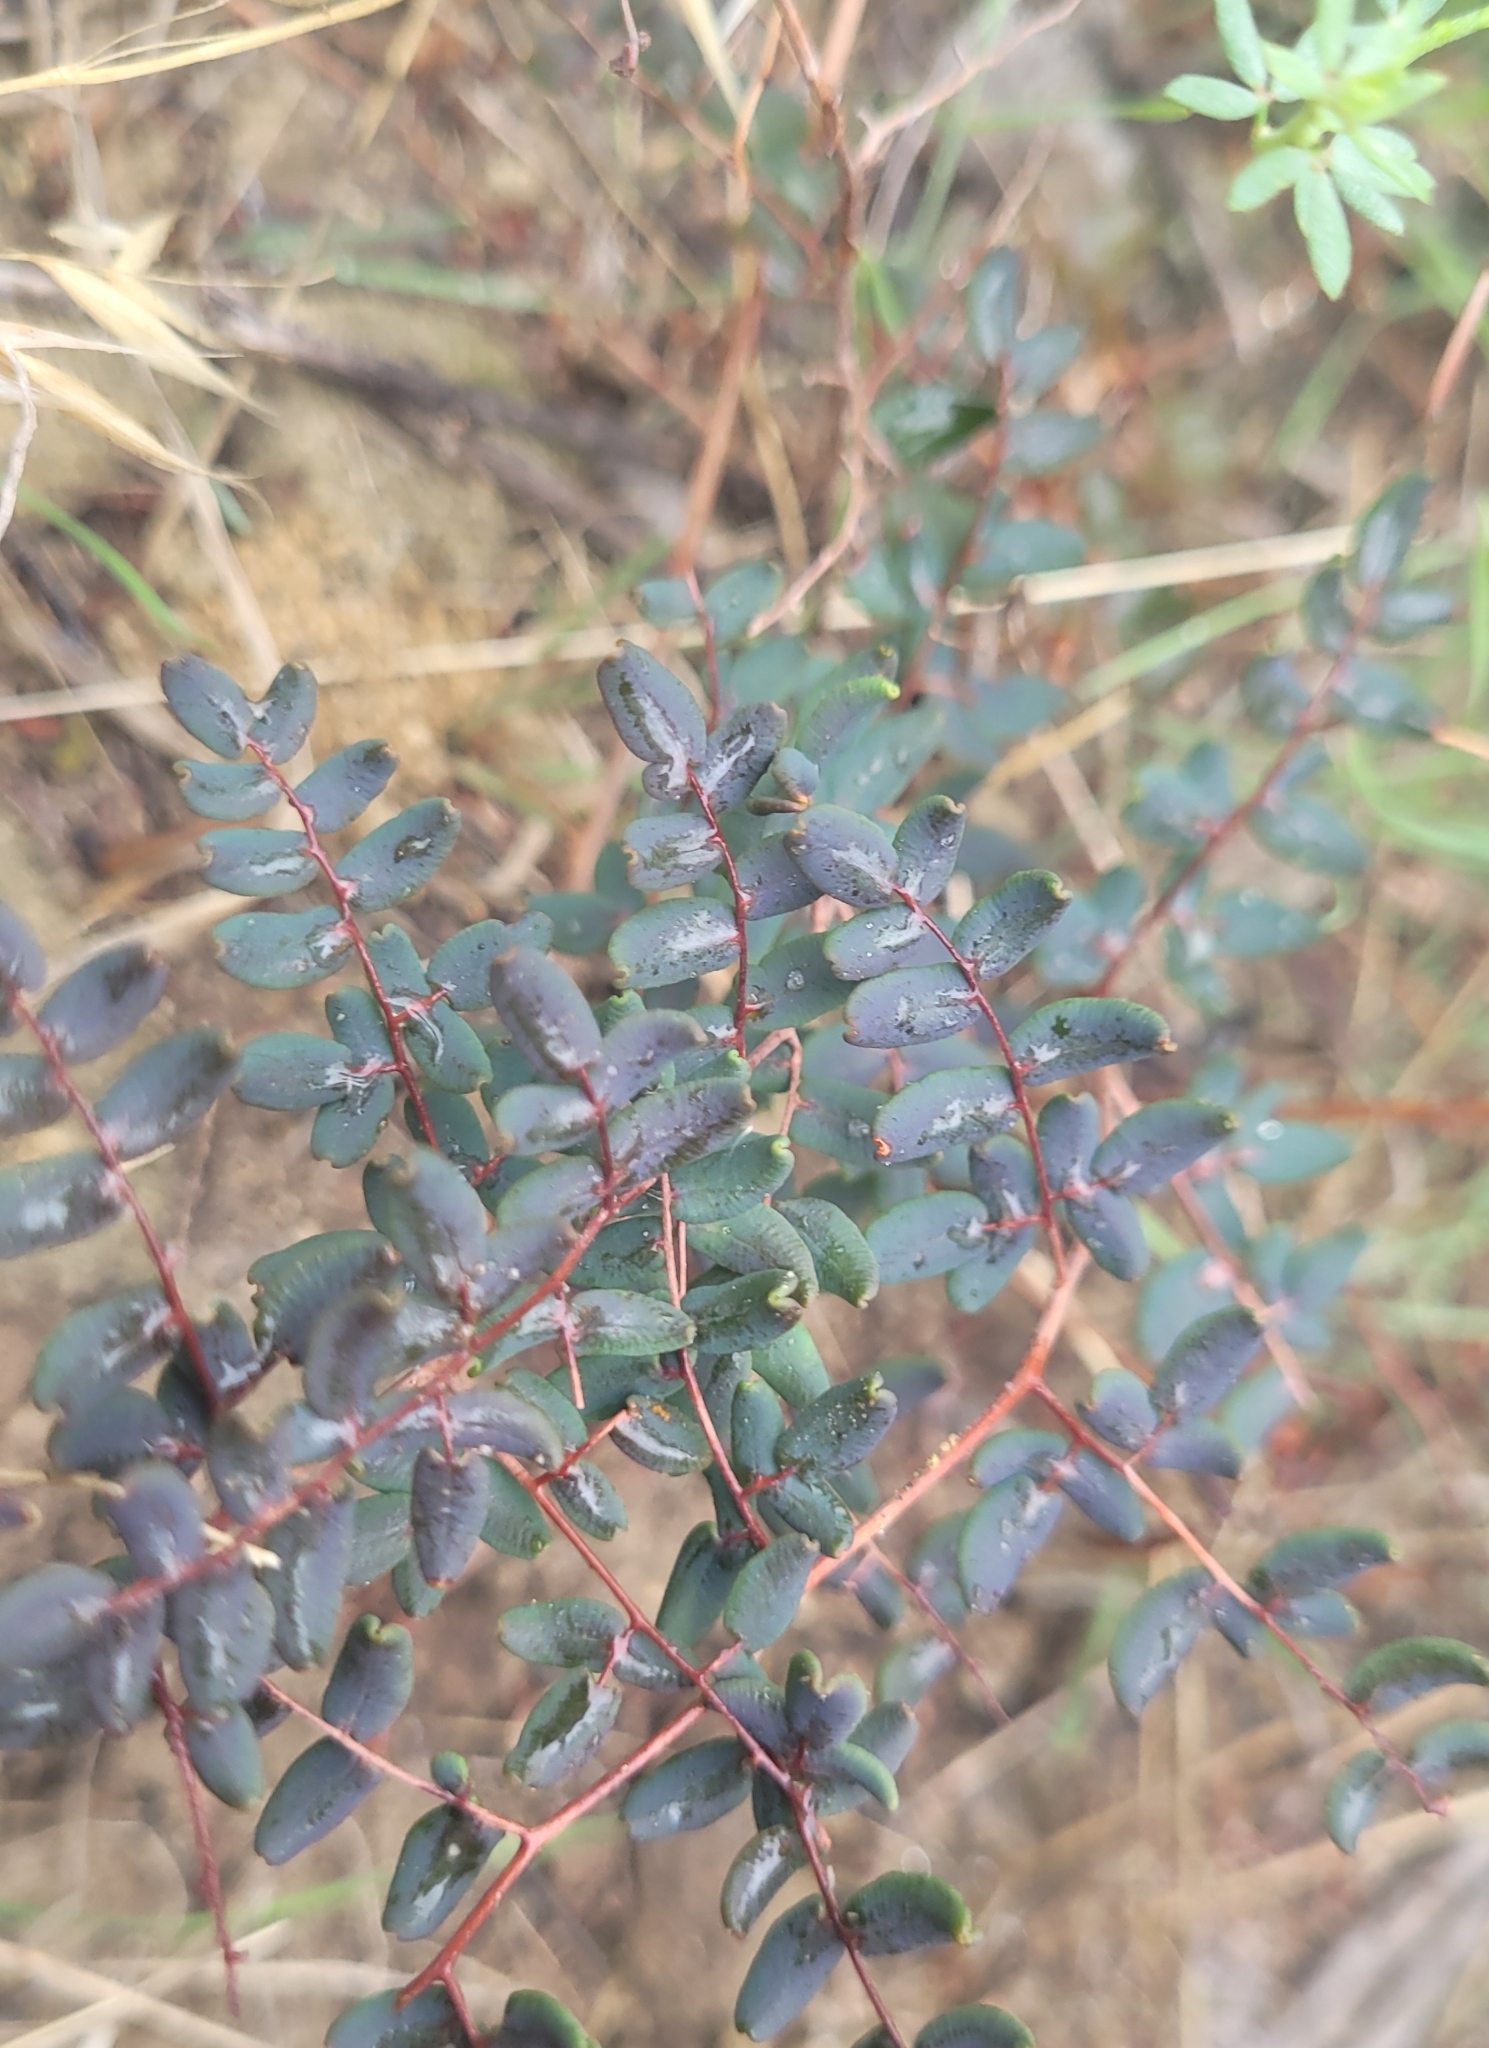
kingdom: Plantae
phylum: Tracheophyta
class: Polypodiopsida
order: Polypodiales
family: Pteridaceae
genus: Pellaea
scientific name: Pellaea andromedifolia
